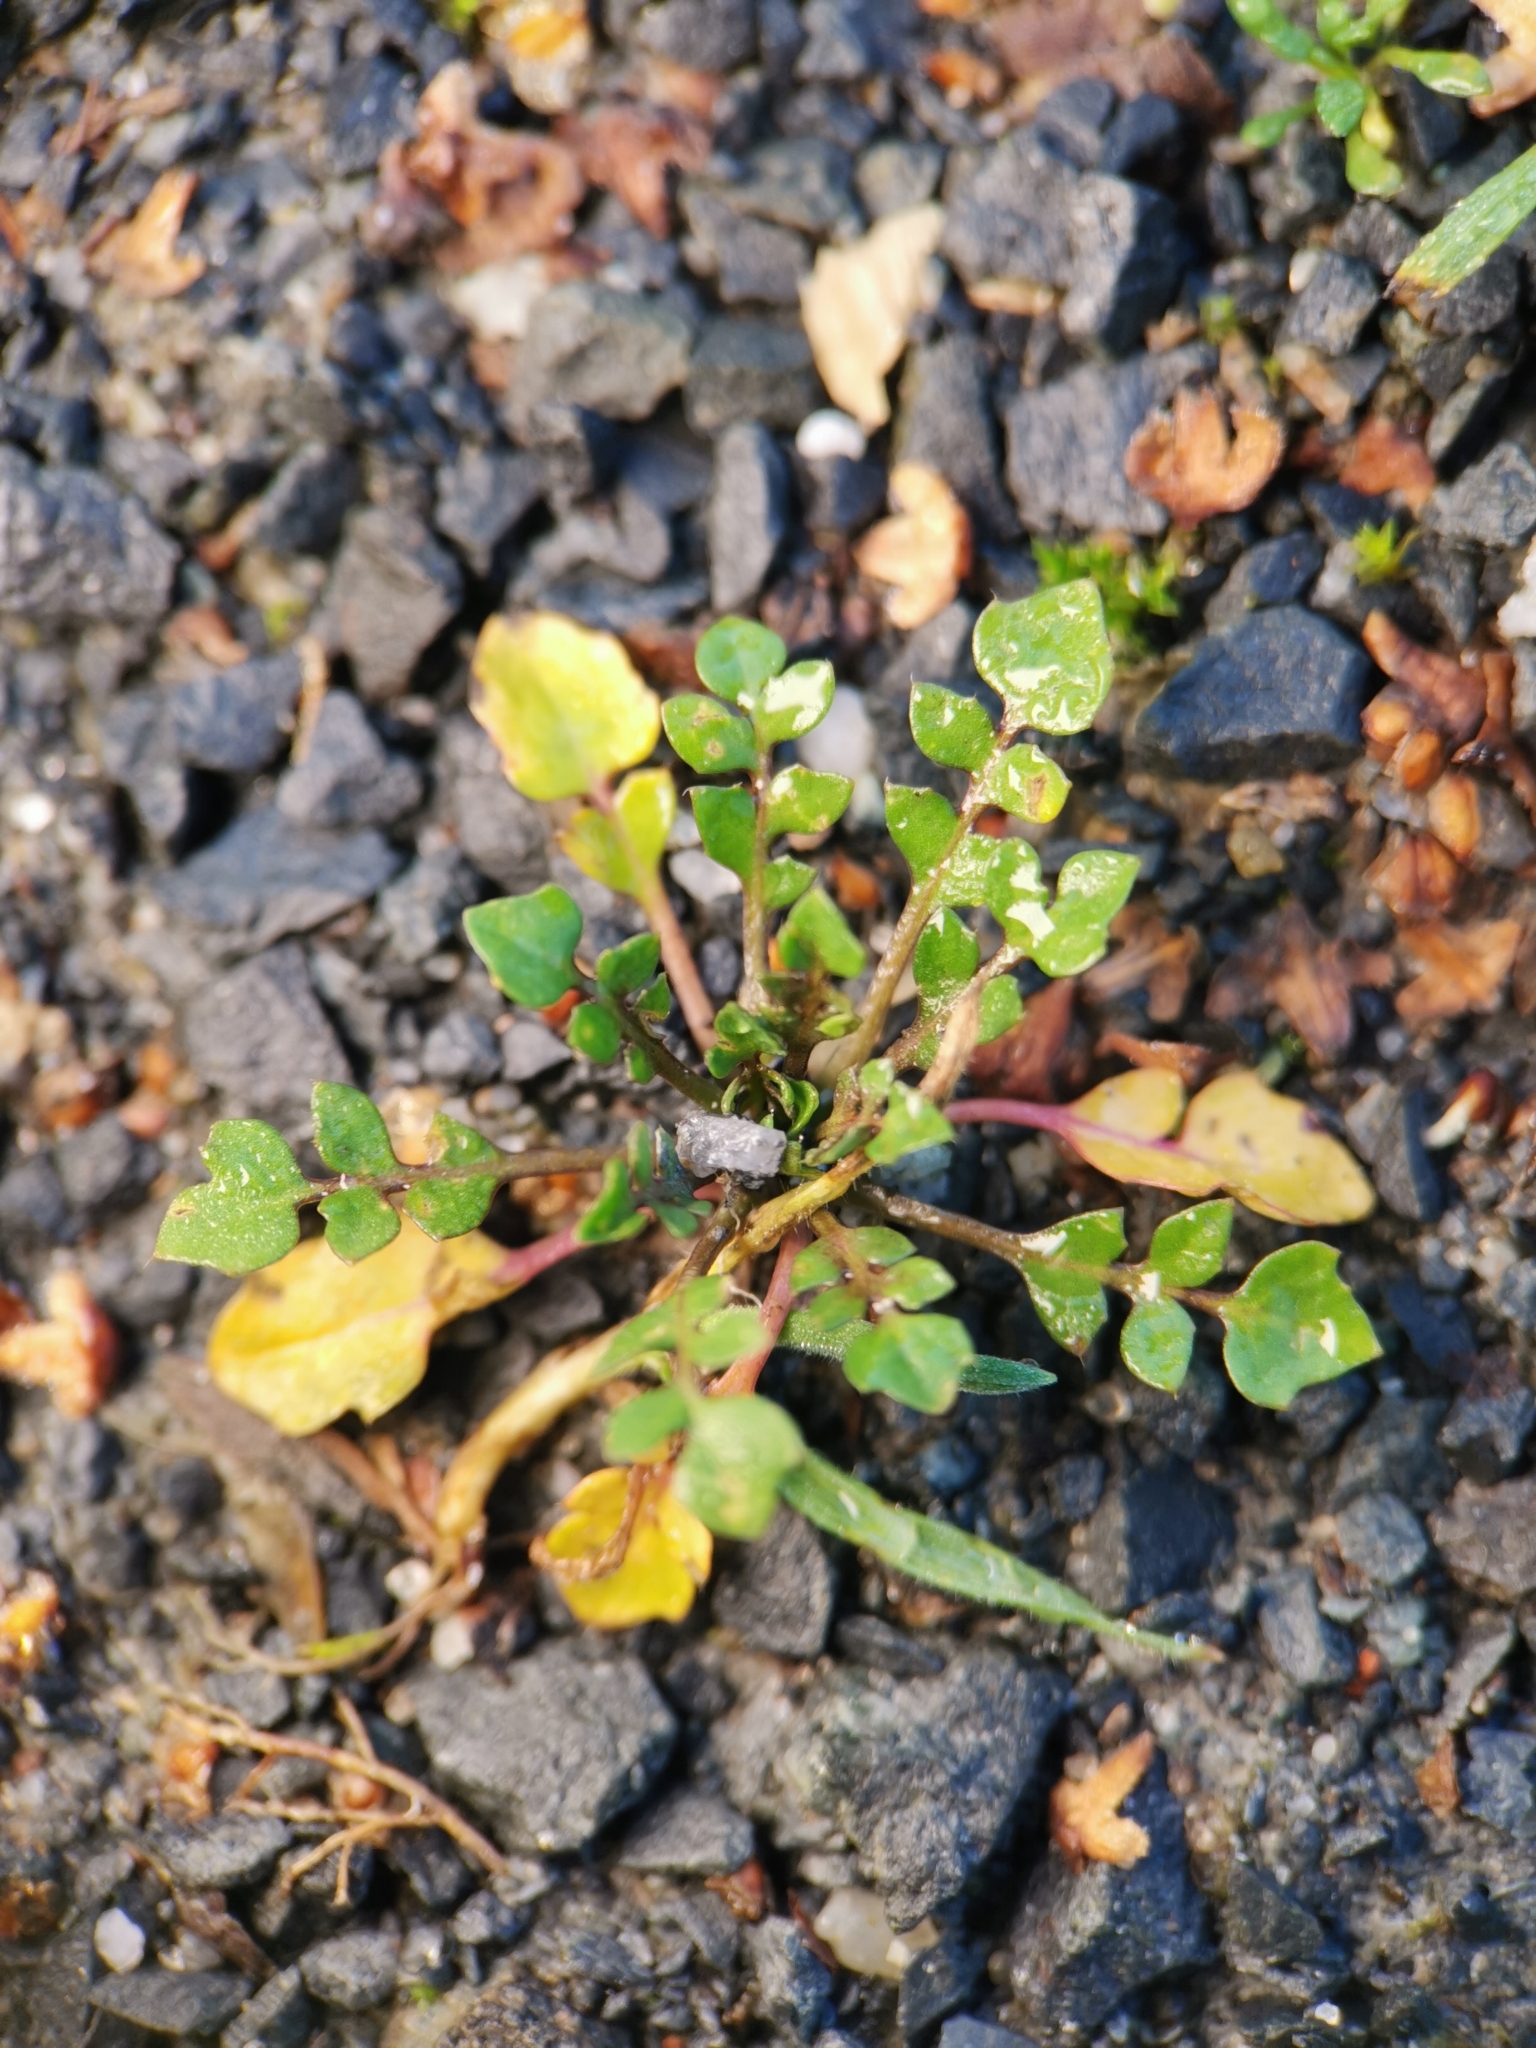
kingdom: Plantae
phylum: Tracheophyta
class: Magnoliopsida
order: Brassicales
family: Brassicaceae
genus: Capsella
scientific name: Capsella bursa-pastoris
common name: Shepherd's purse
